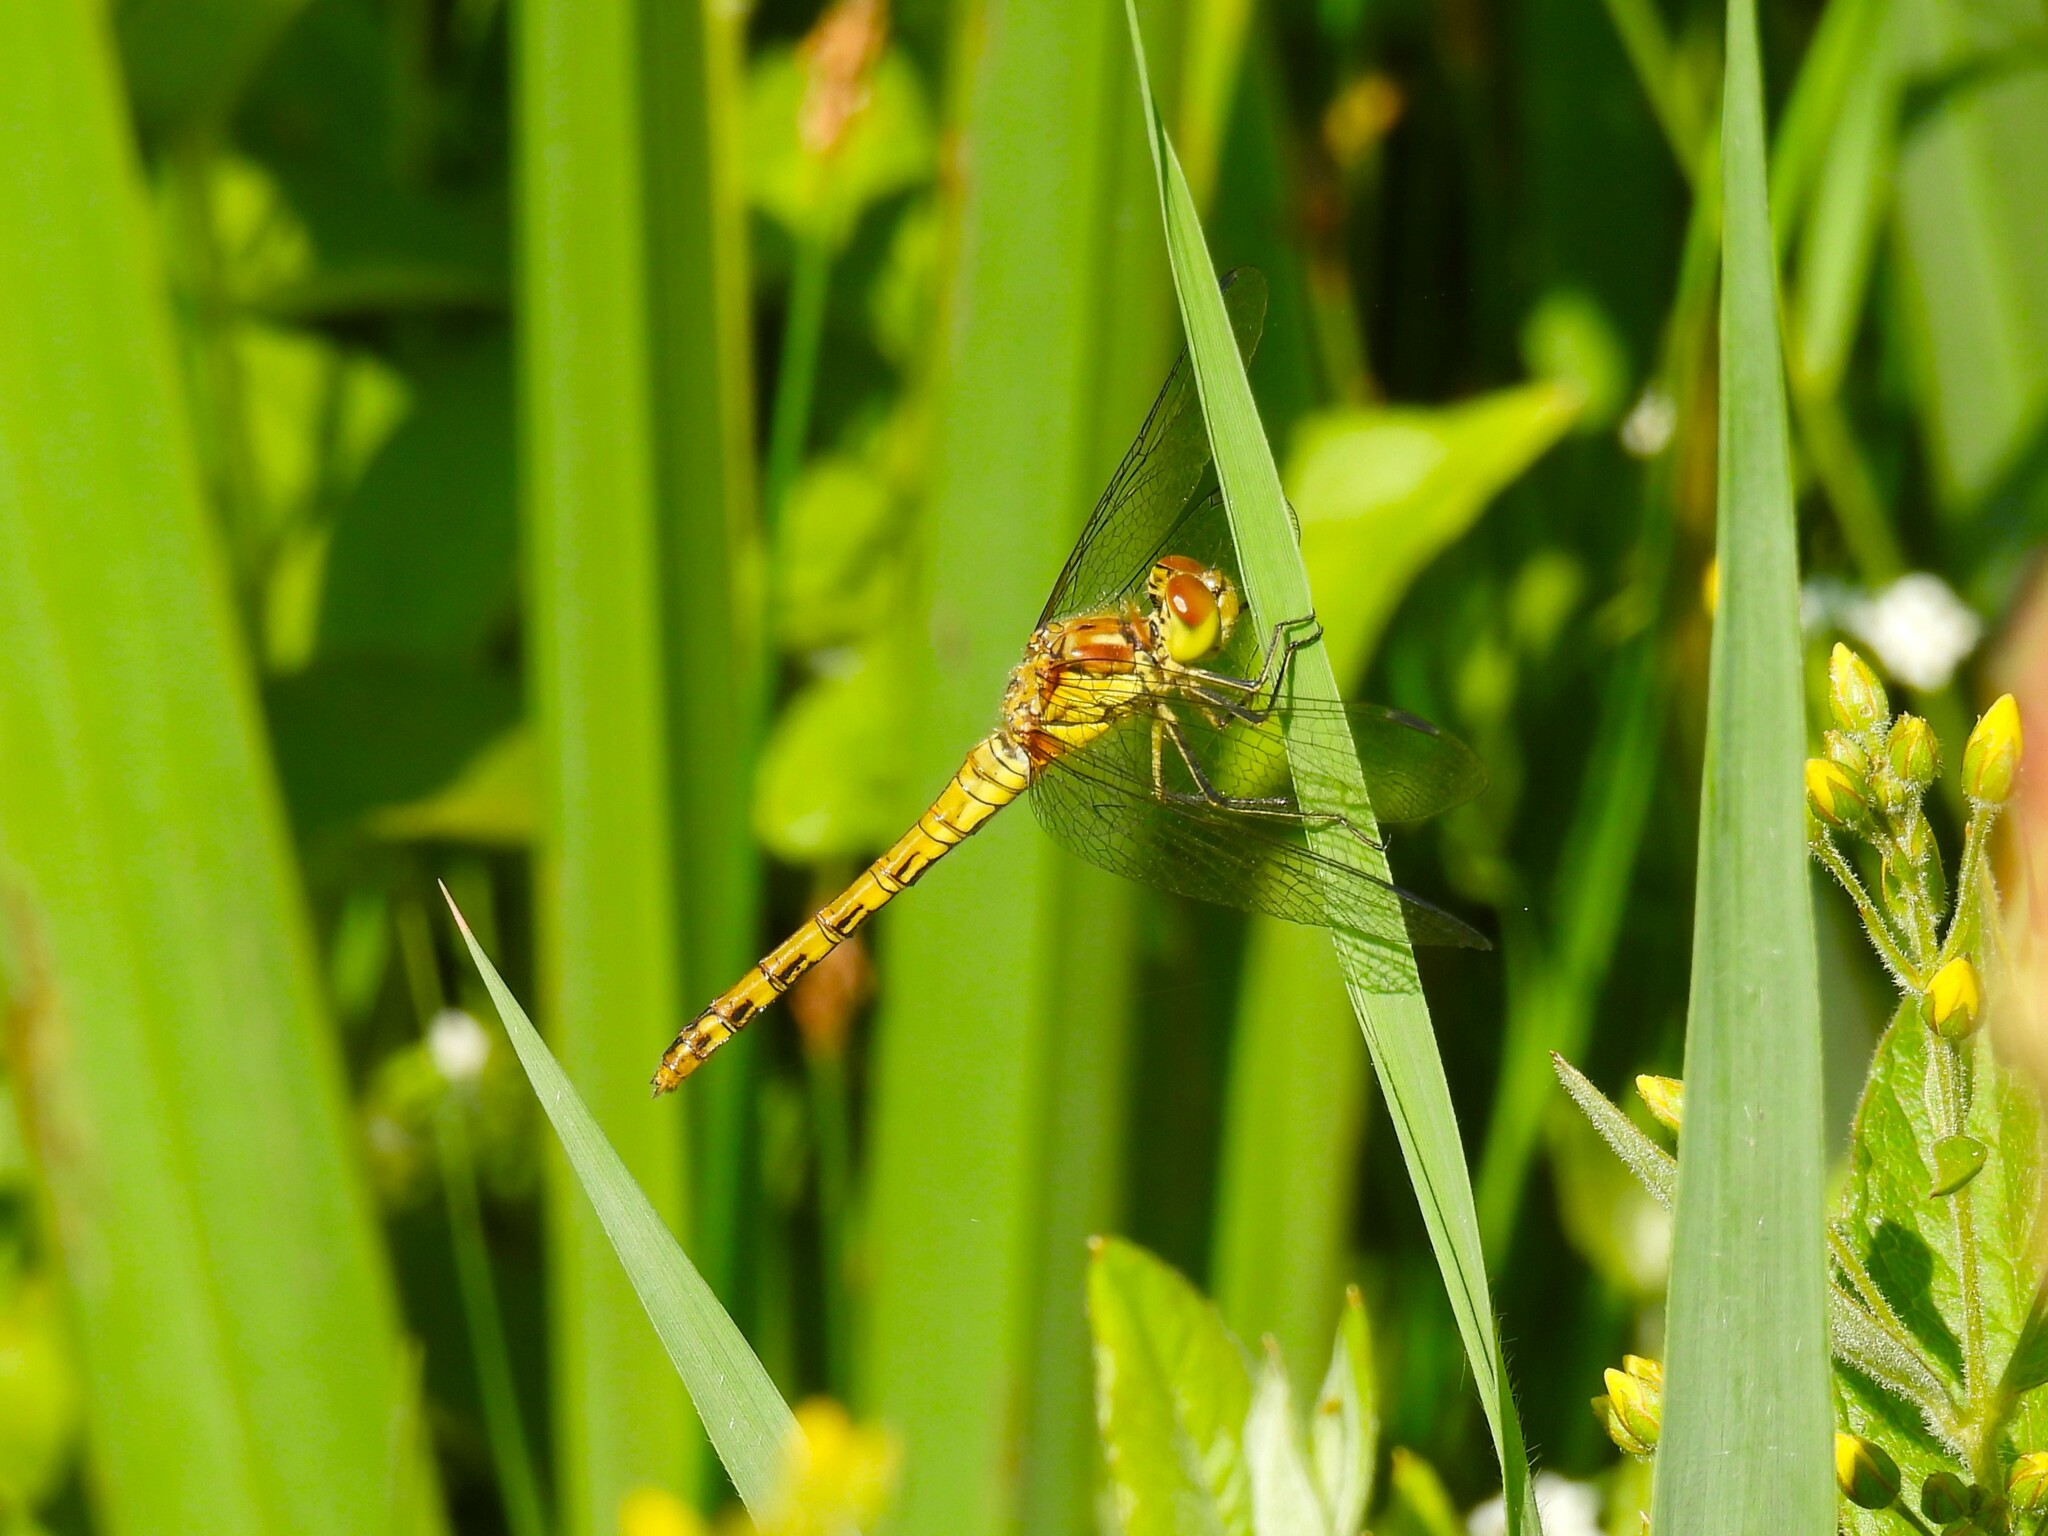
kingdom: Animalia
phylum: Arthropoda
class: Insecta
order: Odonata
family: Libellulidae
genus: Sympetrum
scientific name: Sympetrum striolatum
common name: Common darter
